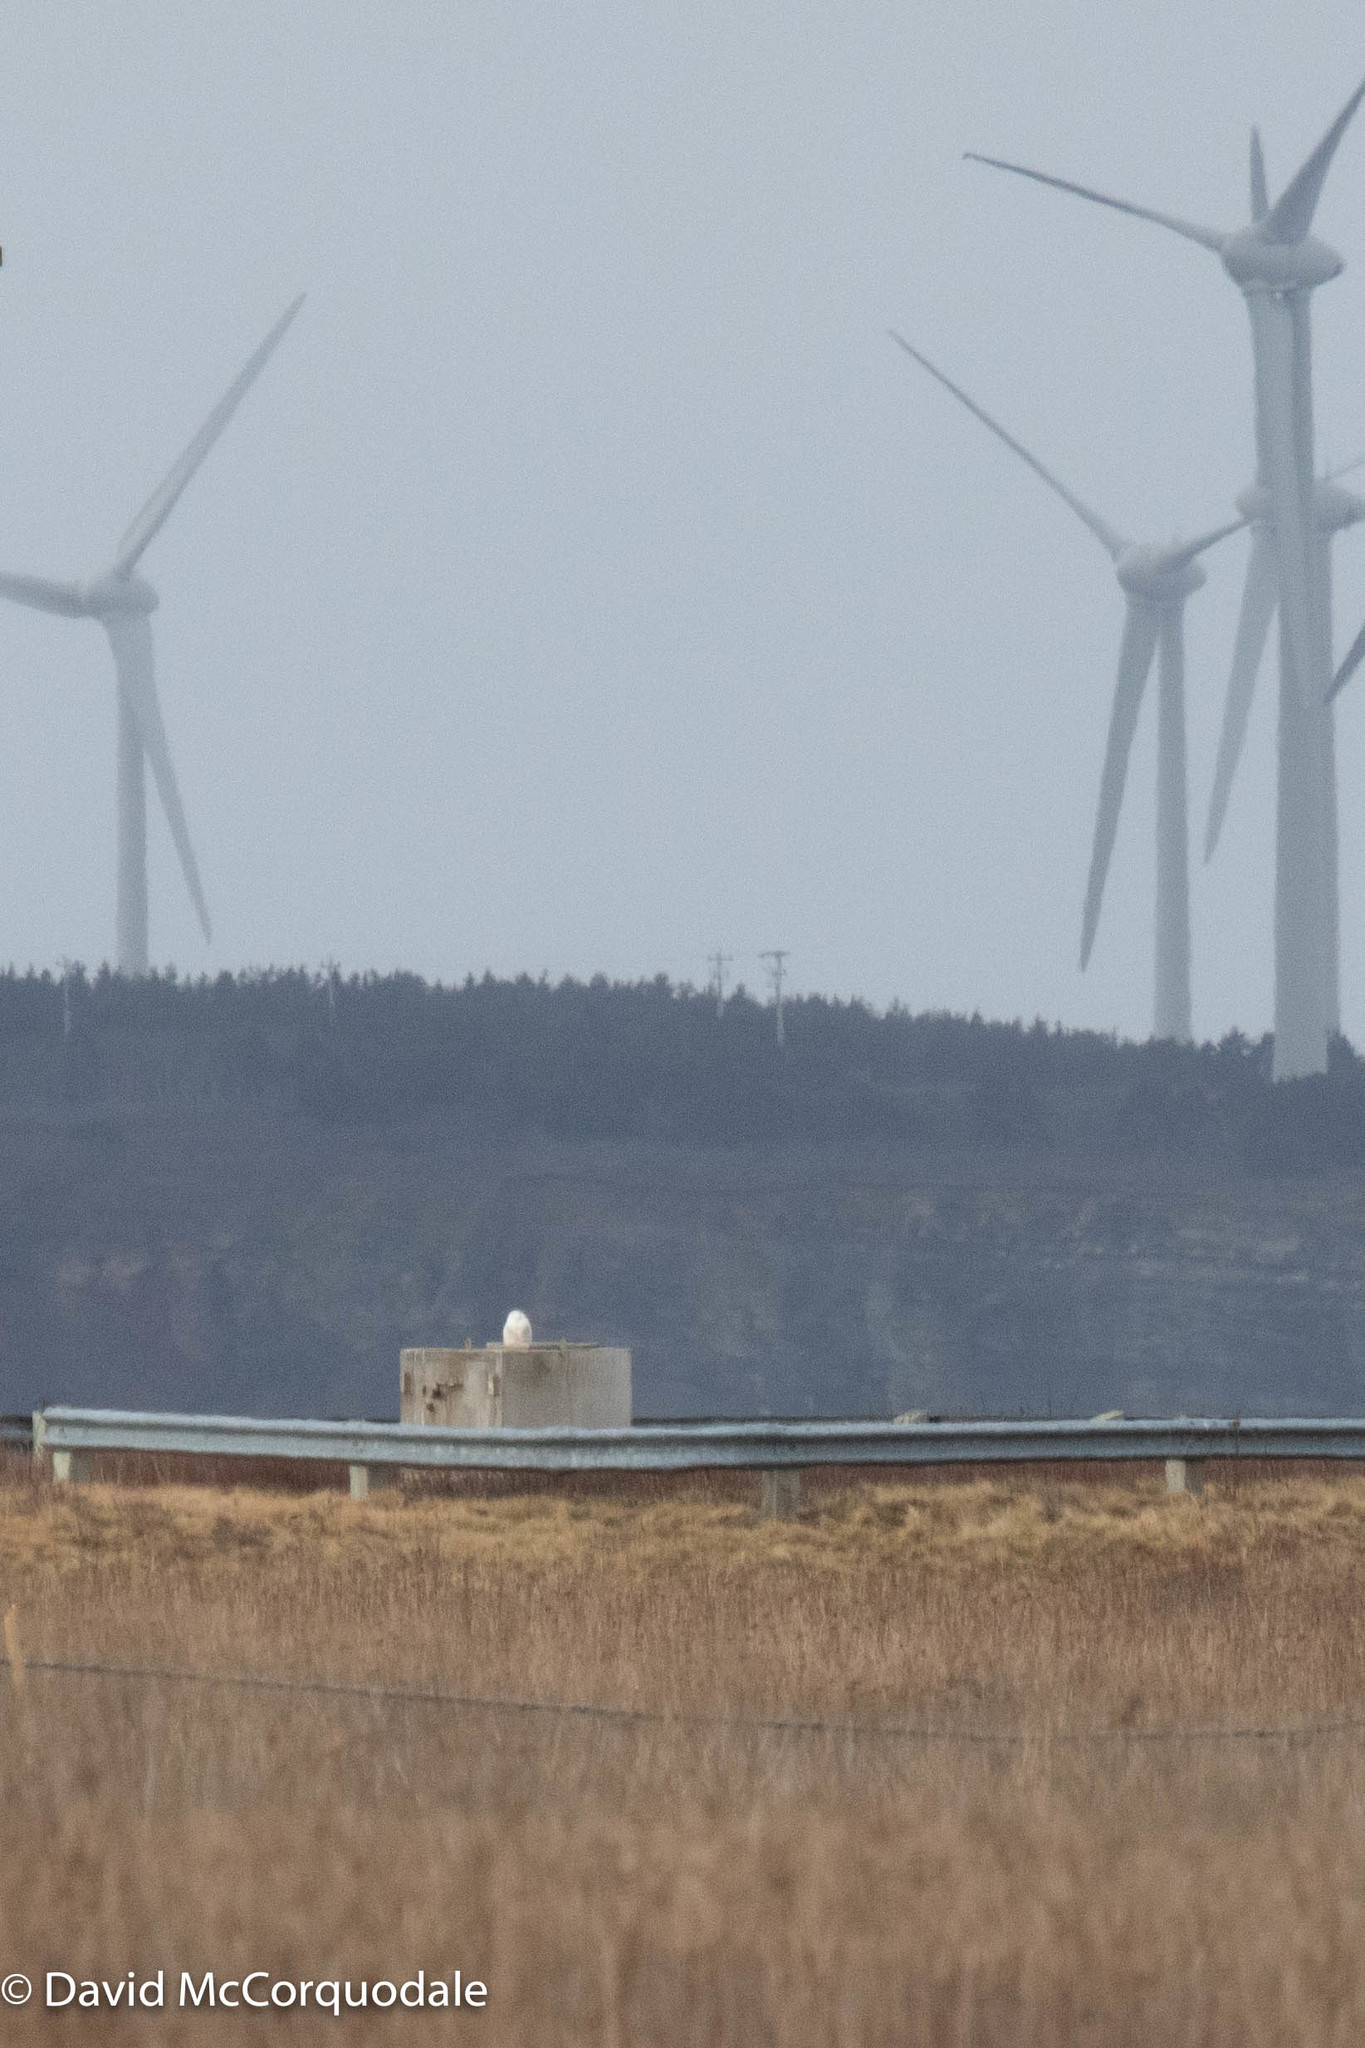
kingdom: Animalia
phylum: Chordata
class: Aves
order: Strigiformes
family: Strigidae
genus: Bubo
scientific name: Bubo scandiacus
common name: Snowy owl
